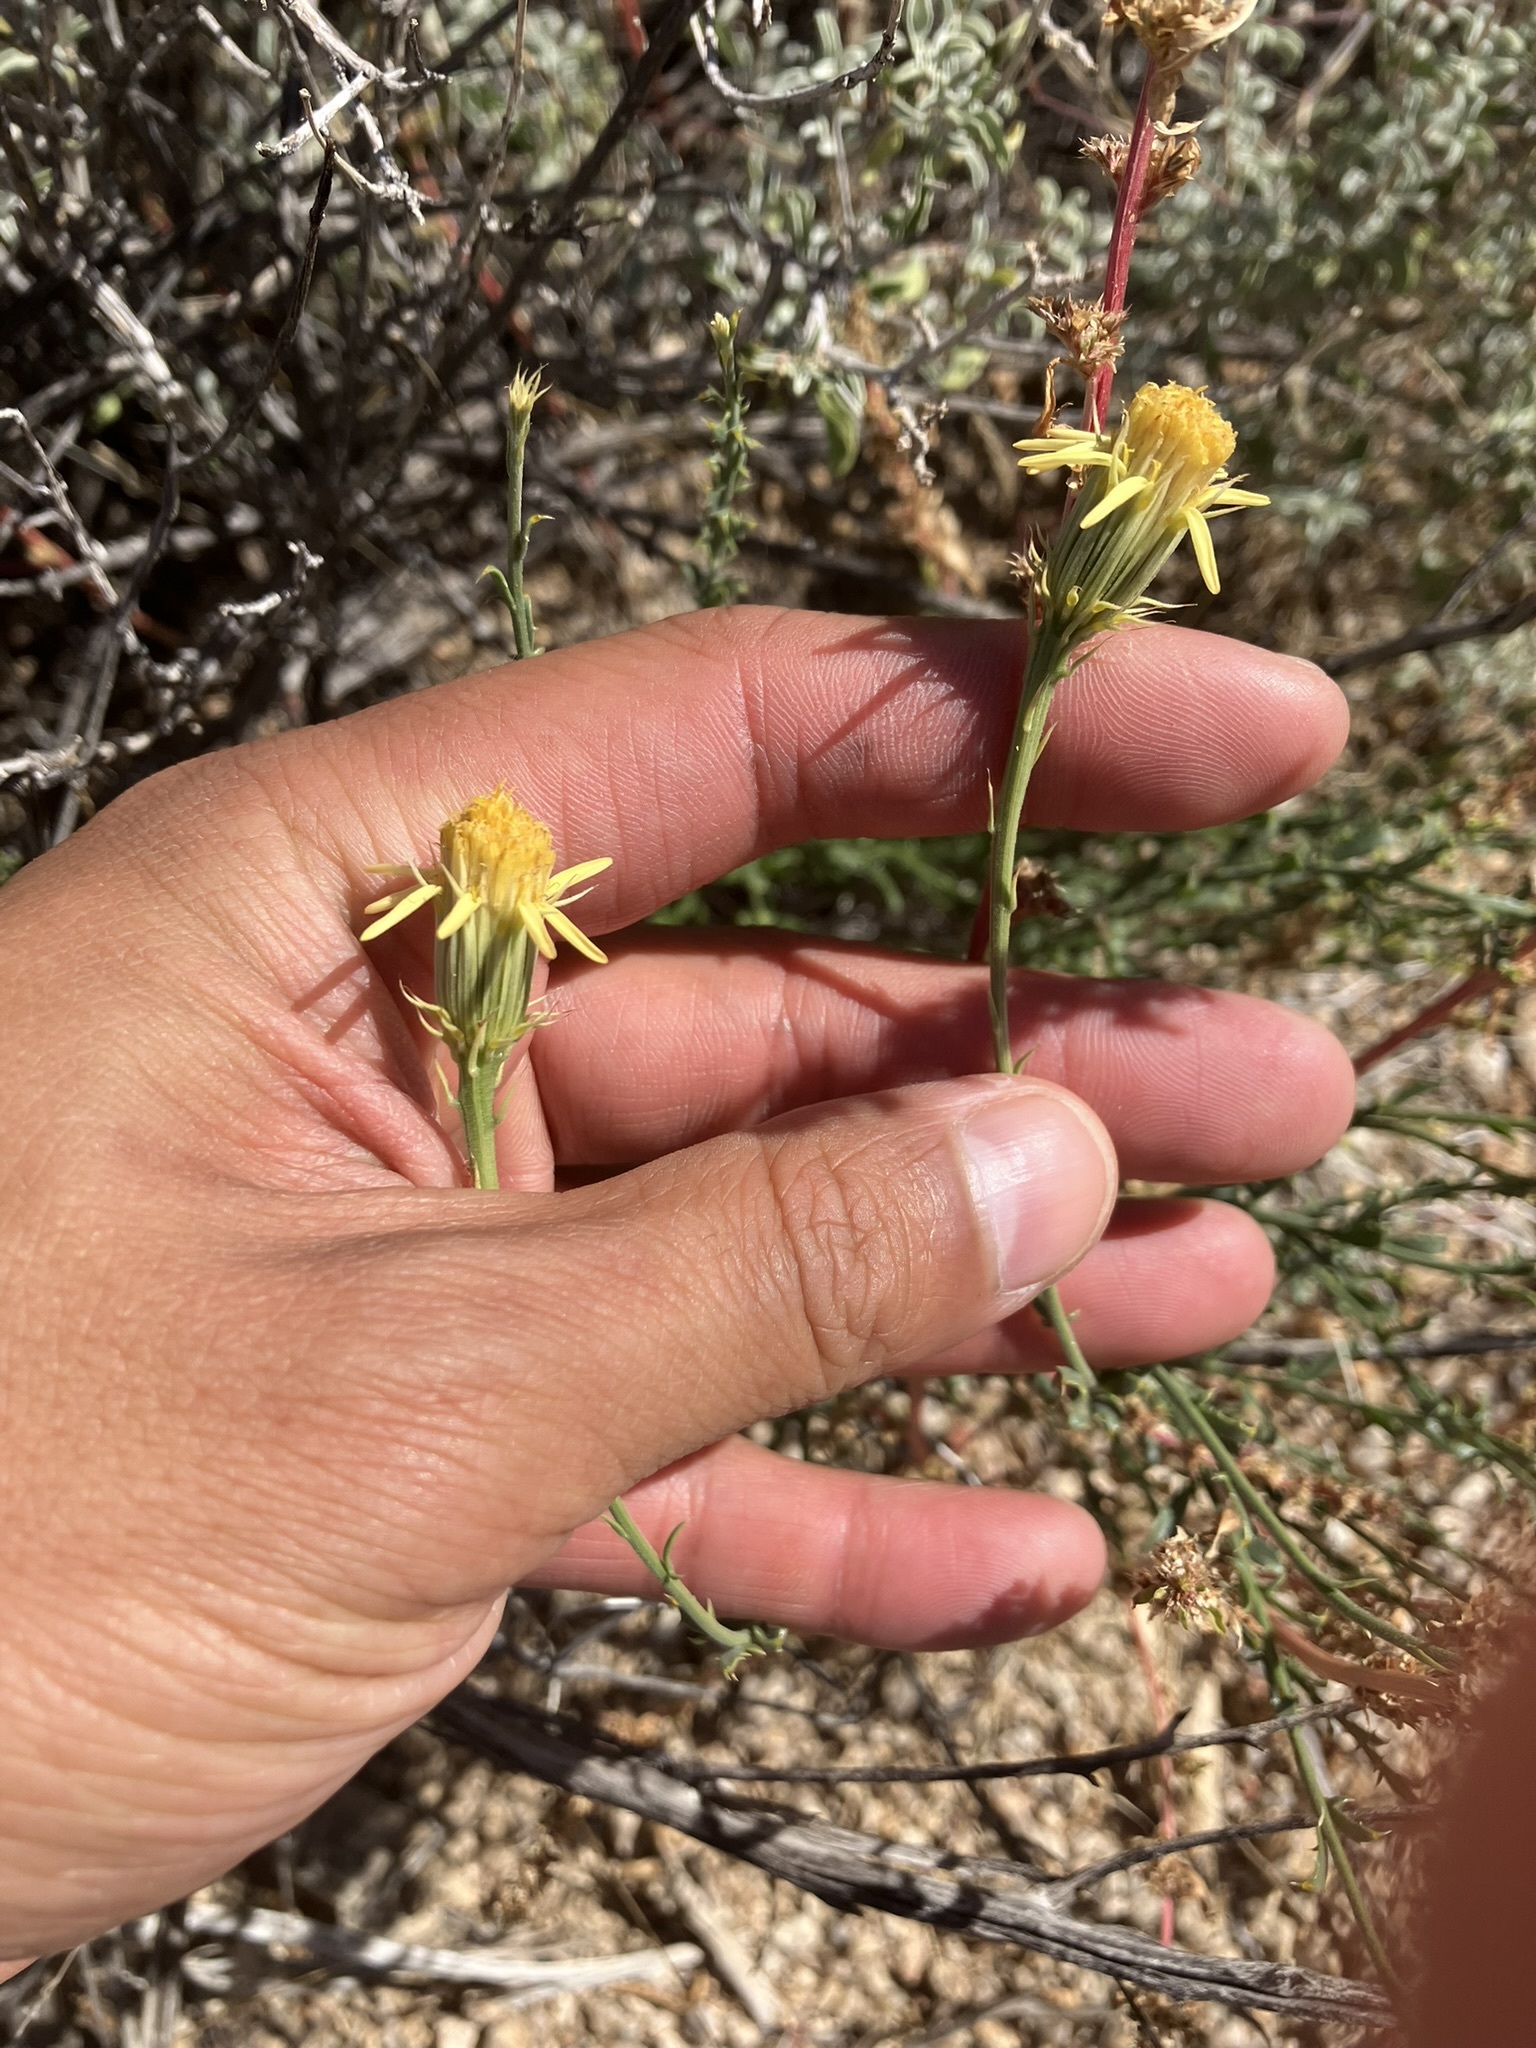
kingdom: Plantae
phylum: Tracheophyta
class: Magnoliopsida
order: Asterales
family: Asteraceae
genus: Adenophyllum
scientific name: Adenophyllum cooperi
